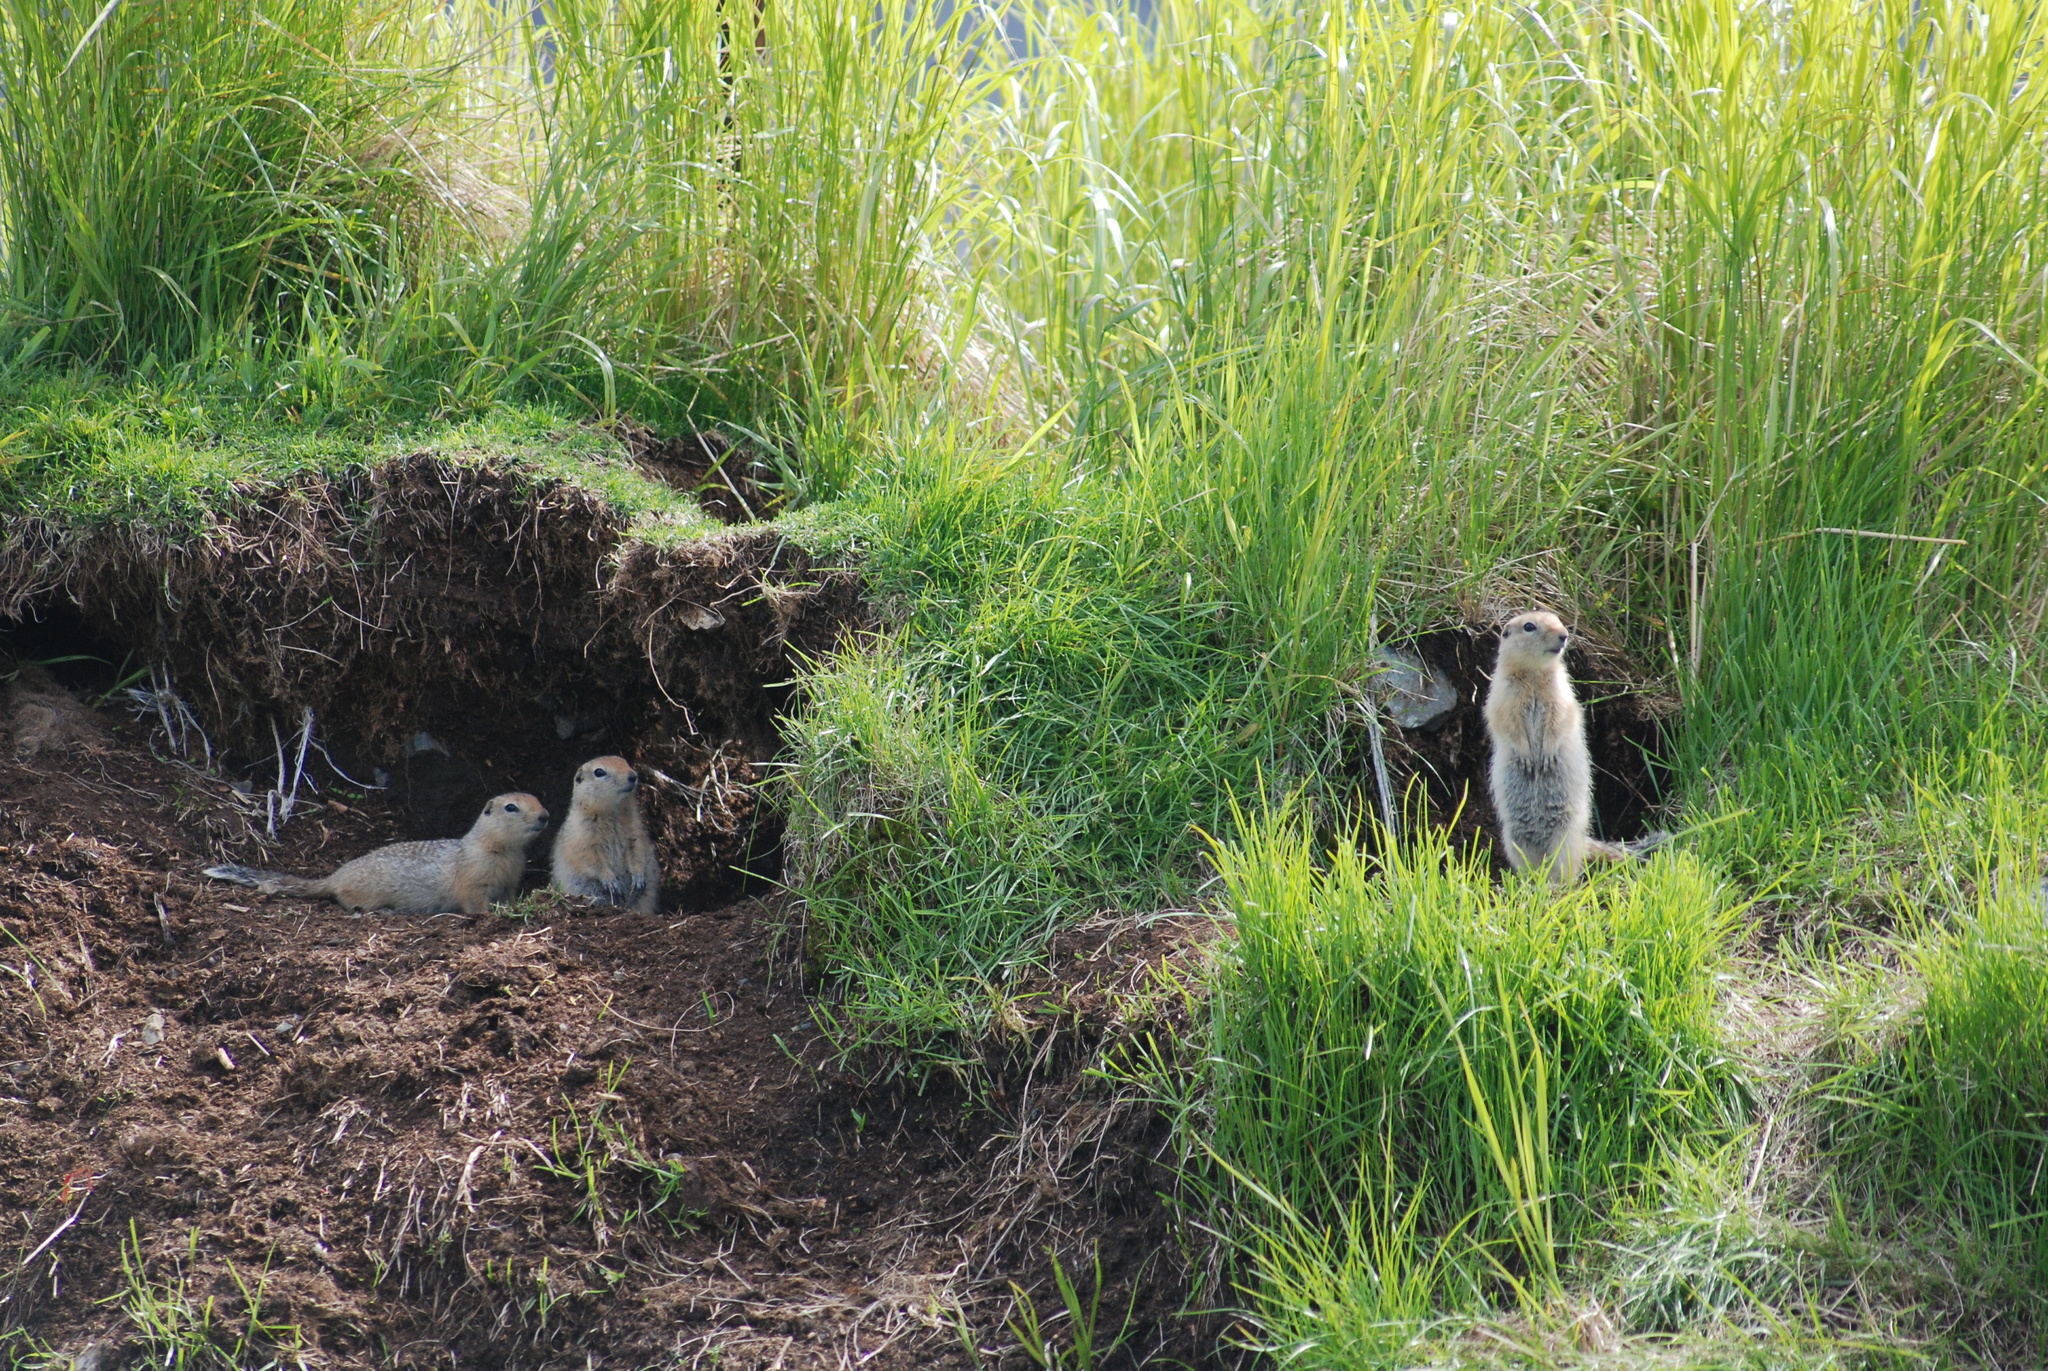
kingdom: Animalia
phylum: Chordata
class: Mammalia
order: Rodentia
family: Sciuridae
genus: Urocitellus
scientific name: Urocitellus parryii
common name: Arctic ground squirrel
